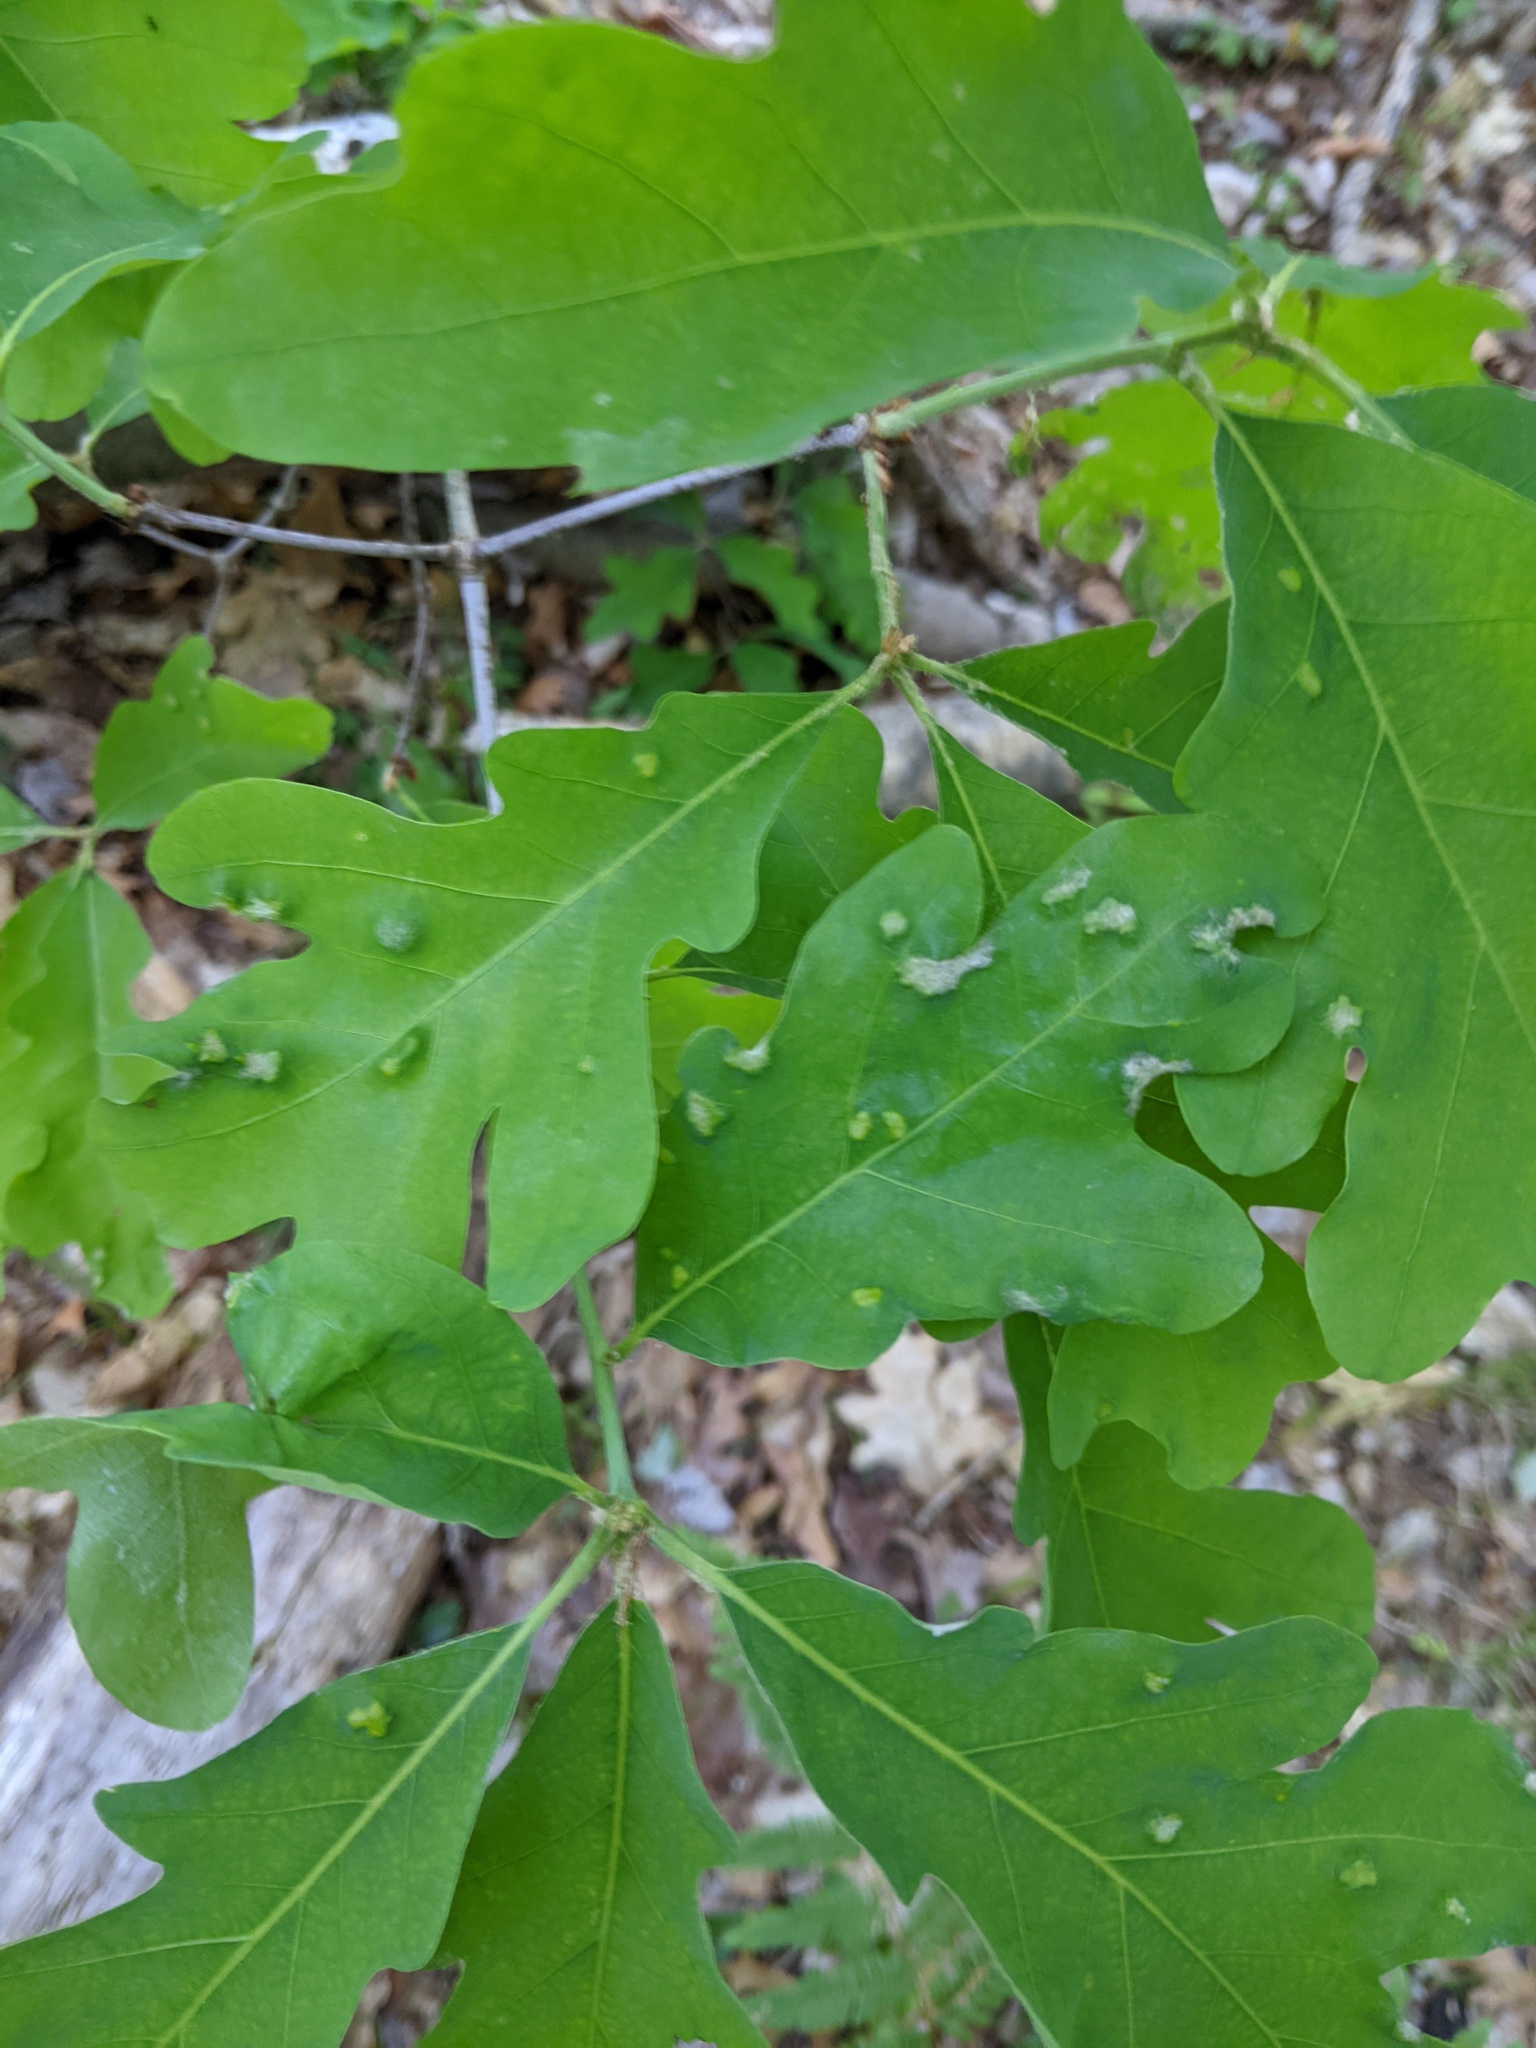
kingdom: Animalia
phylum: Arthropoda
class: Arachnida
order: Trombidiformes
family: Eriophyidae
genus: Aceria
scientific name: Aceria
